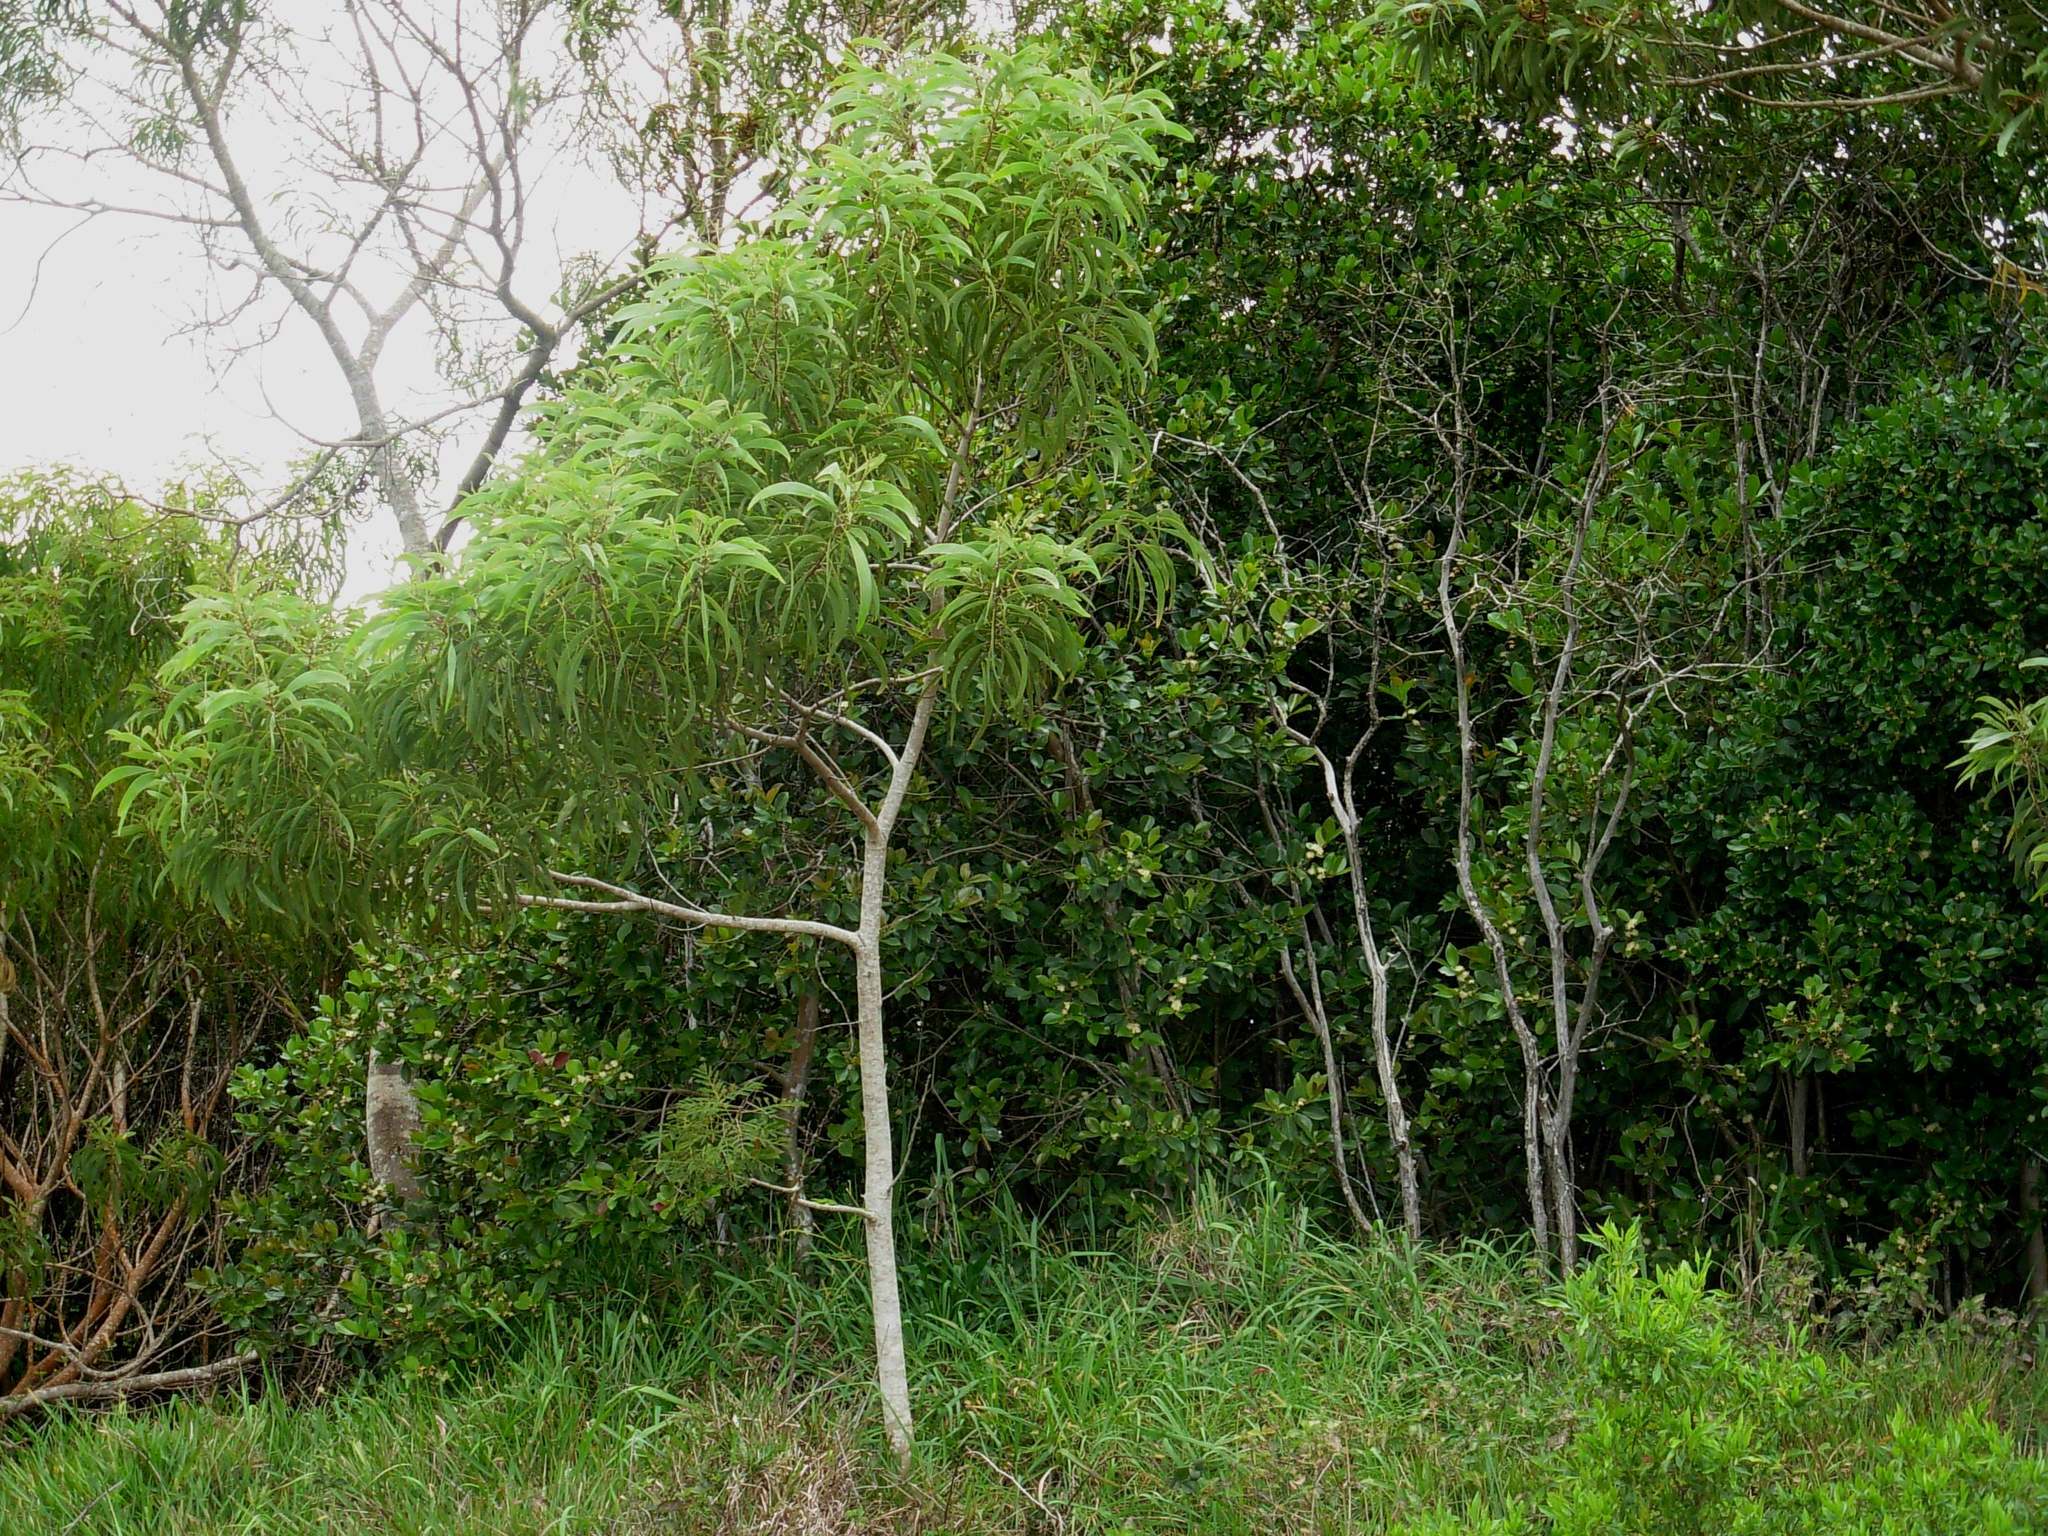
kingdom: Plantae
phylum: Tracheophyta
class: Magnoliopsida
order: Fabales
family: Fabaceae
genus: Acacia
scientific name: Acacia koa
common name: Gray koa
